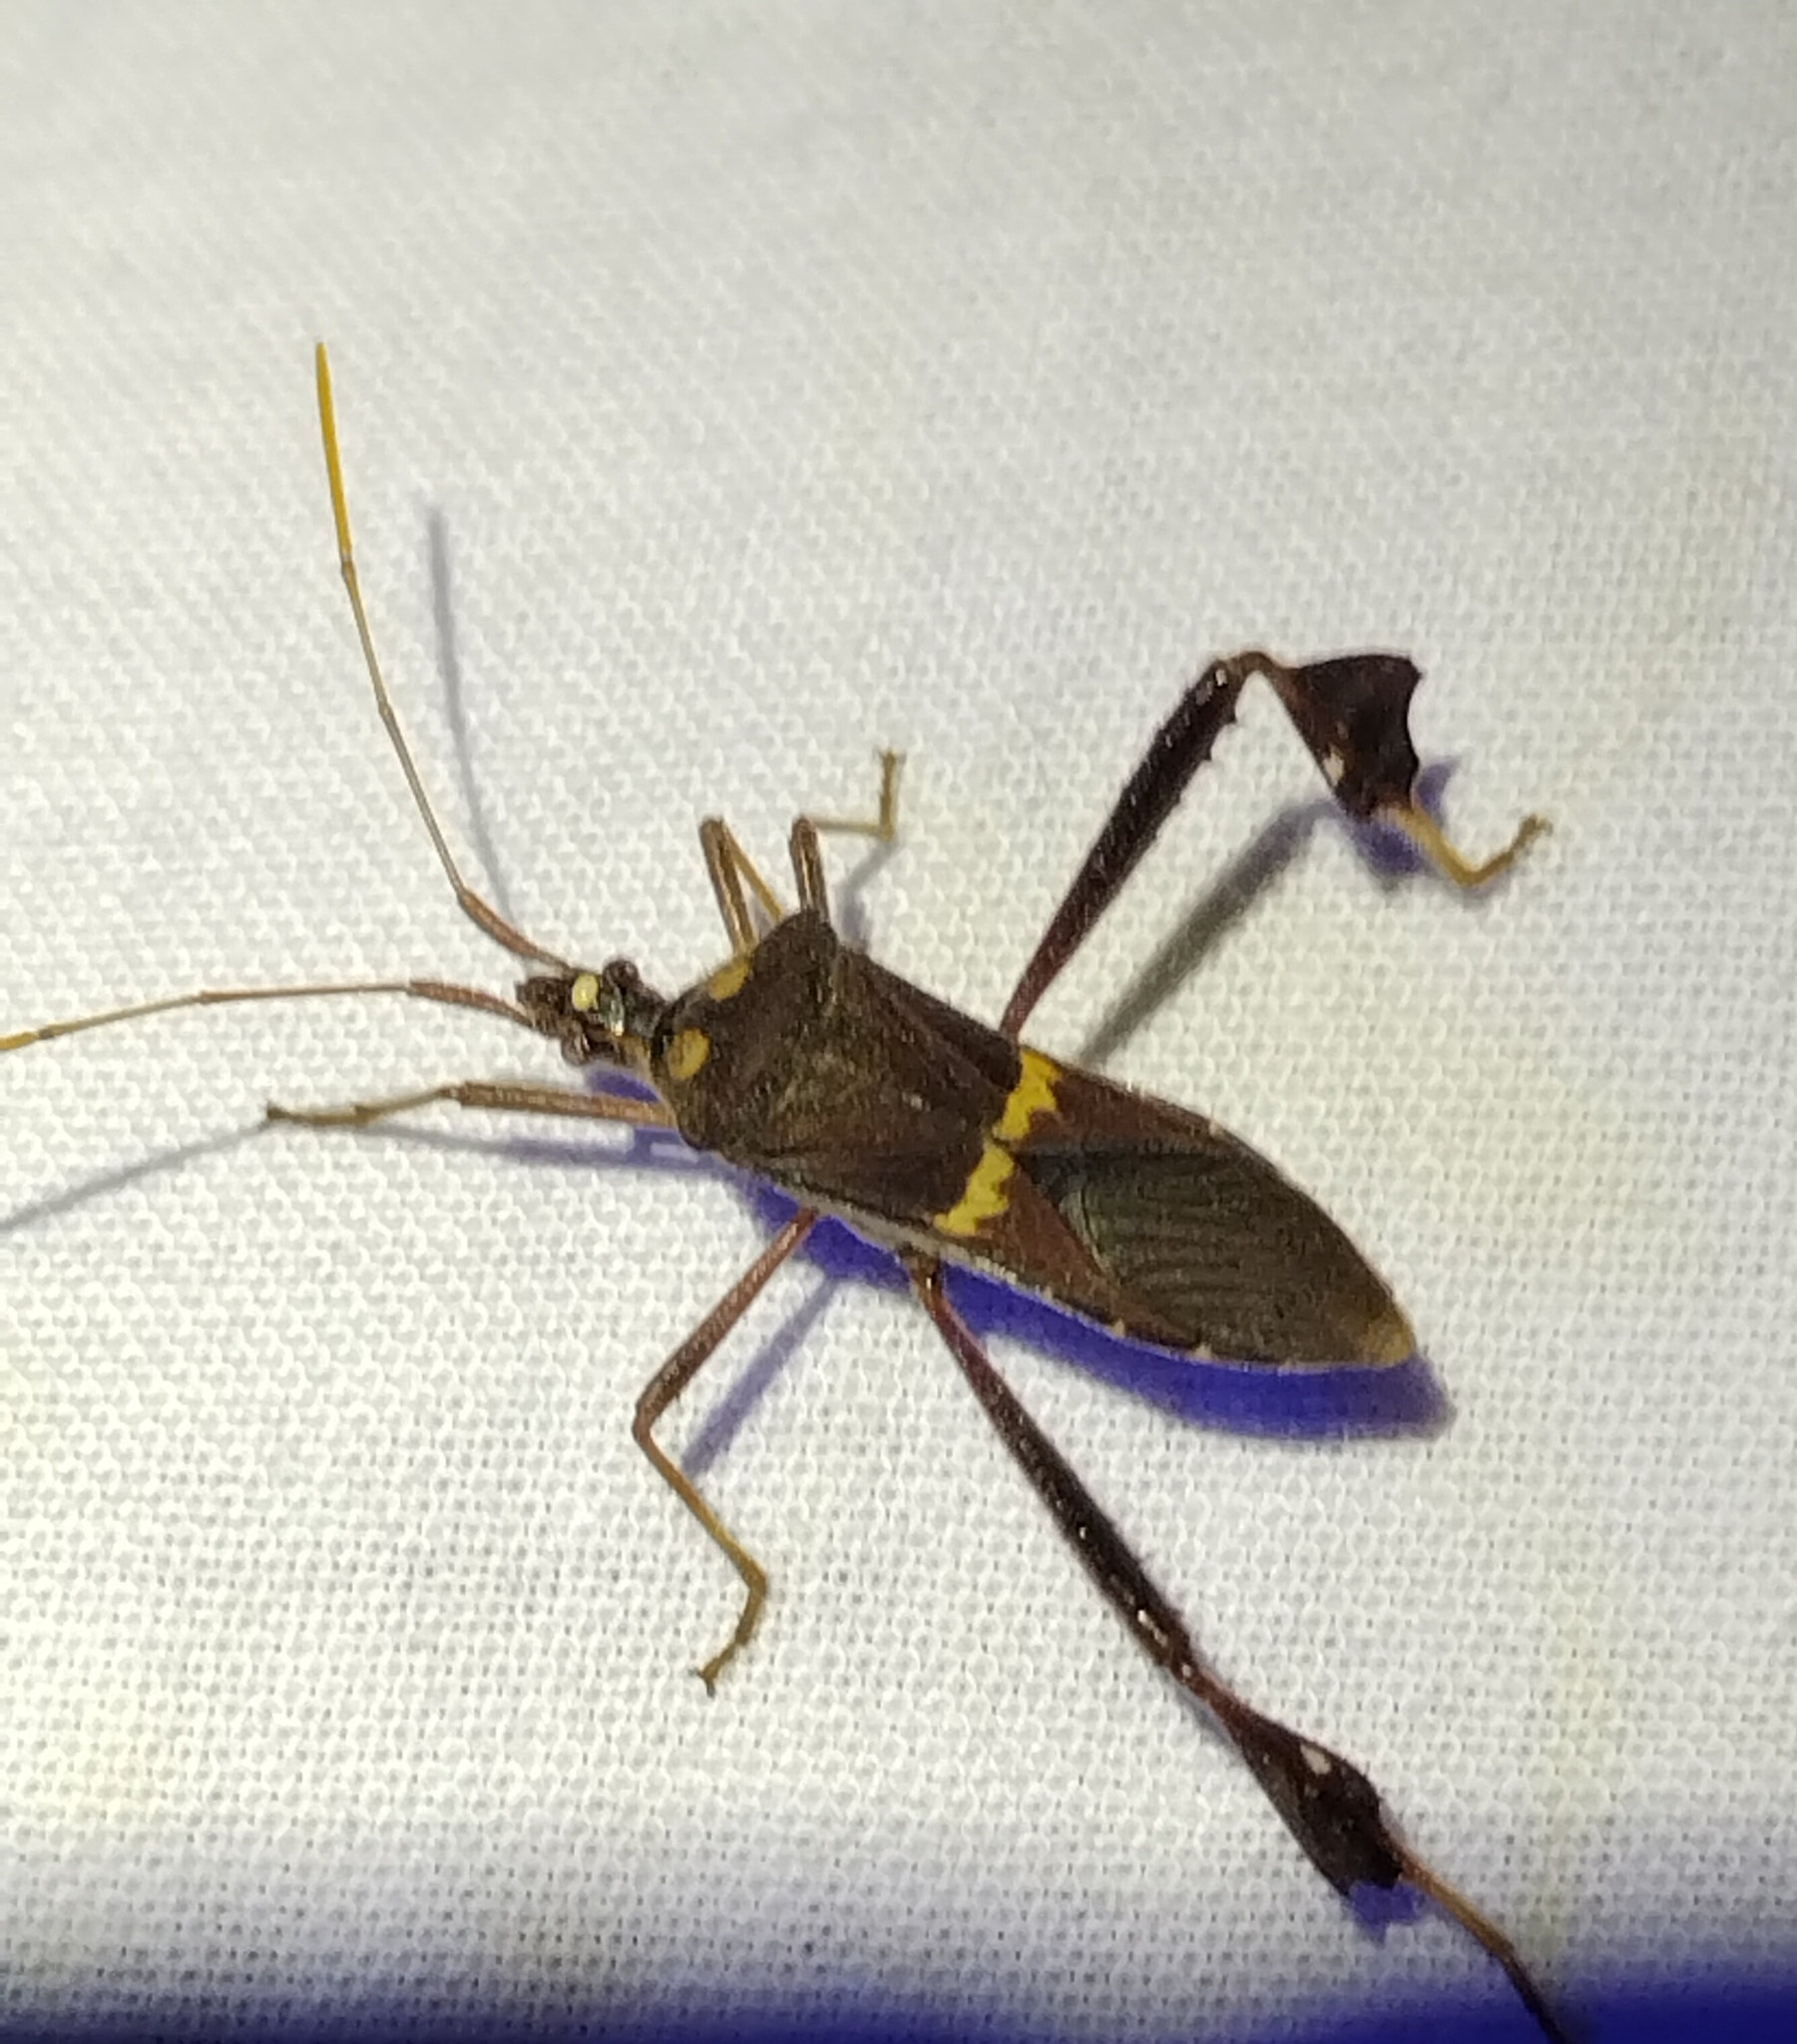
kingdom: Animalia
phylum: Arthropoda
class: Insecta
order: Hemiptera
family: Coreidae
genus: Leptoglossus
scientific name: Leptoglossus zonatus
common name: Large-legged bug
